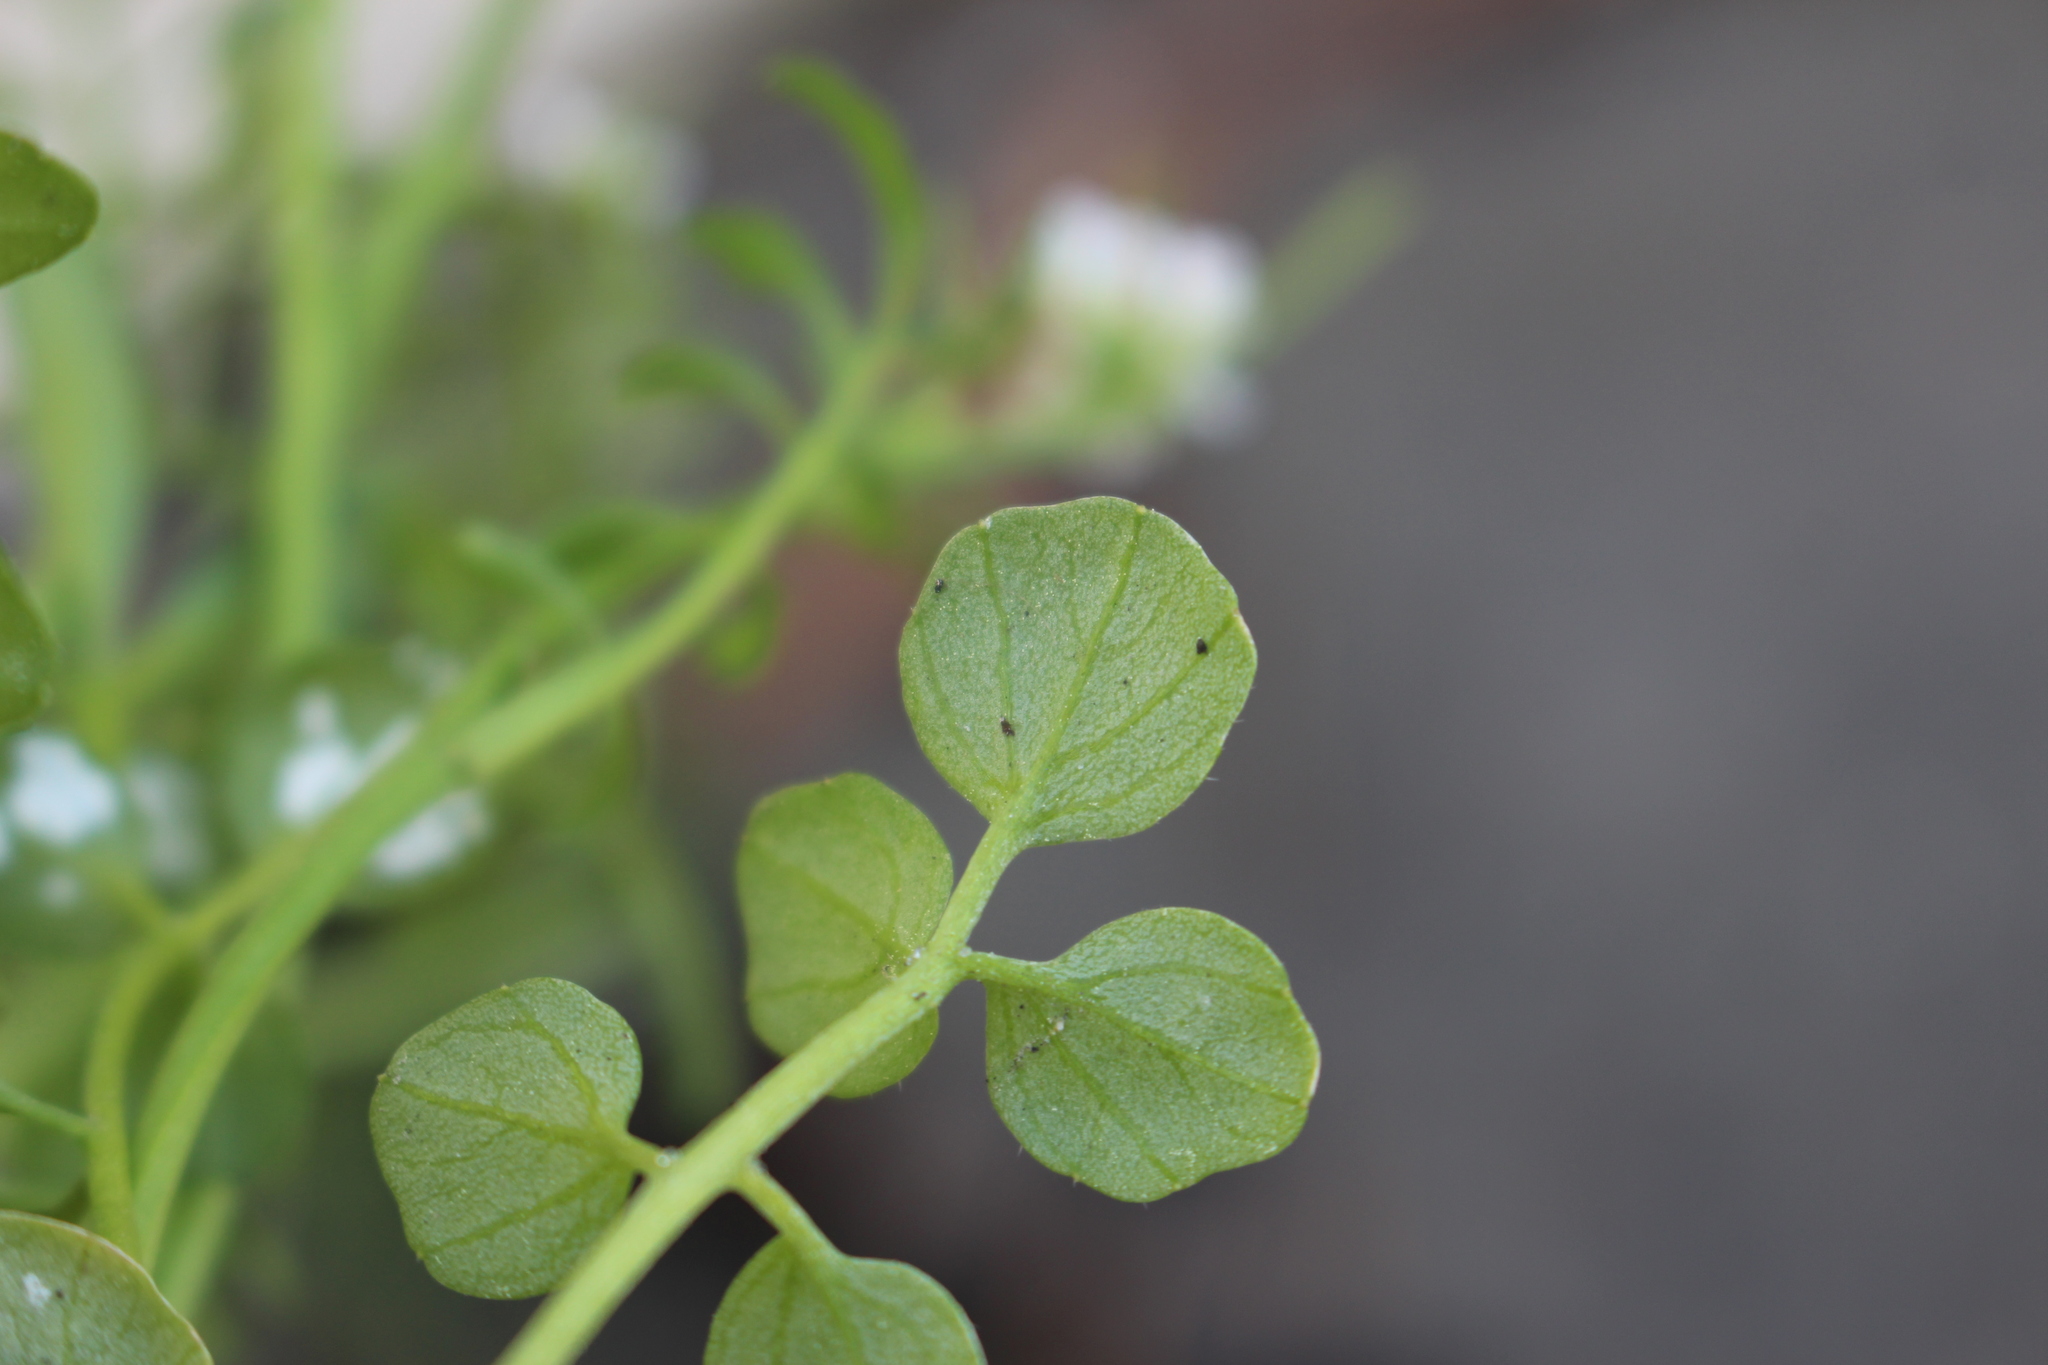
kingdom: Plantae
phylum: Tracheophyta
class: Magnoliopsida
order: Brassicales
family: Brassicaceae
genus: Cardamine
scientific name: Cardamine flexuosa
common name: Woodland bittercress
